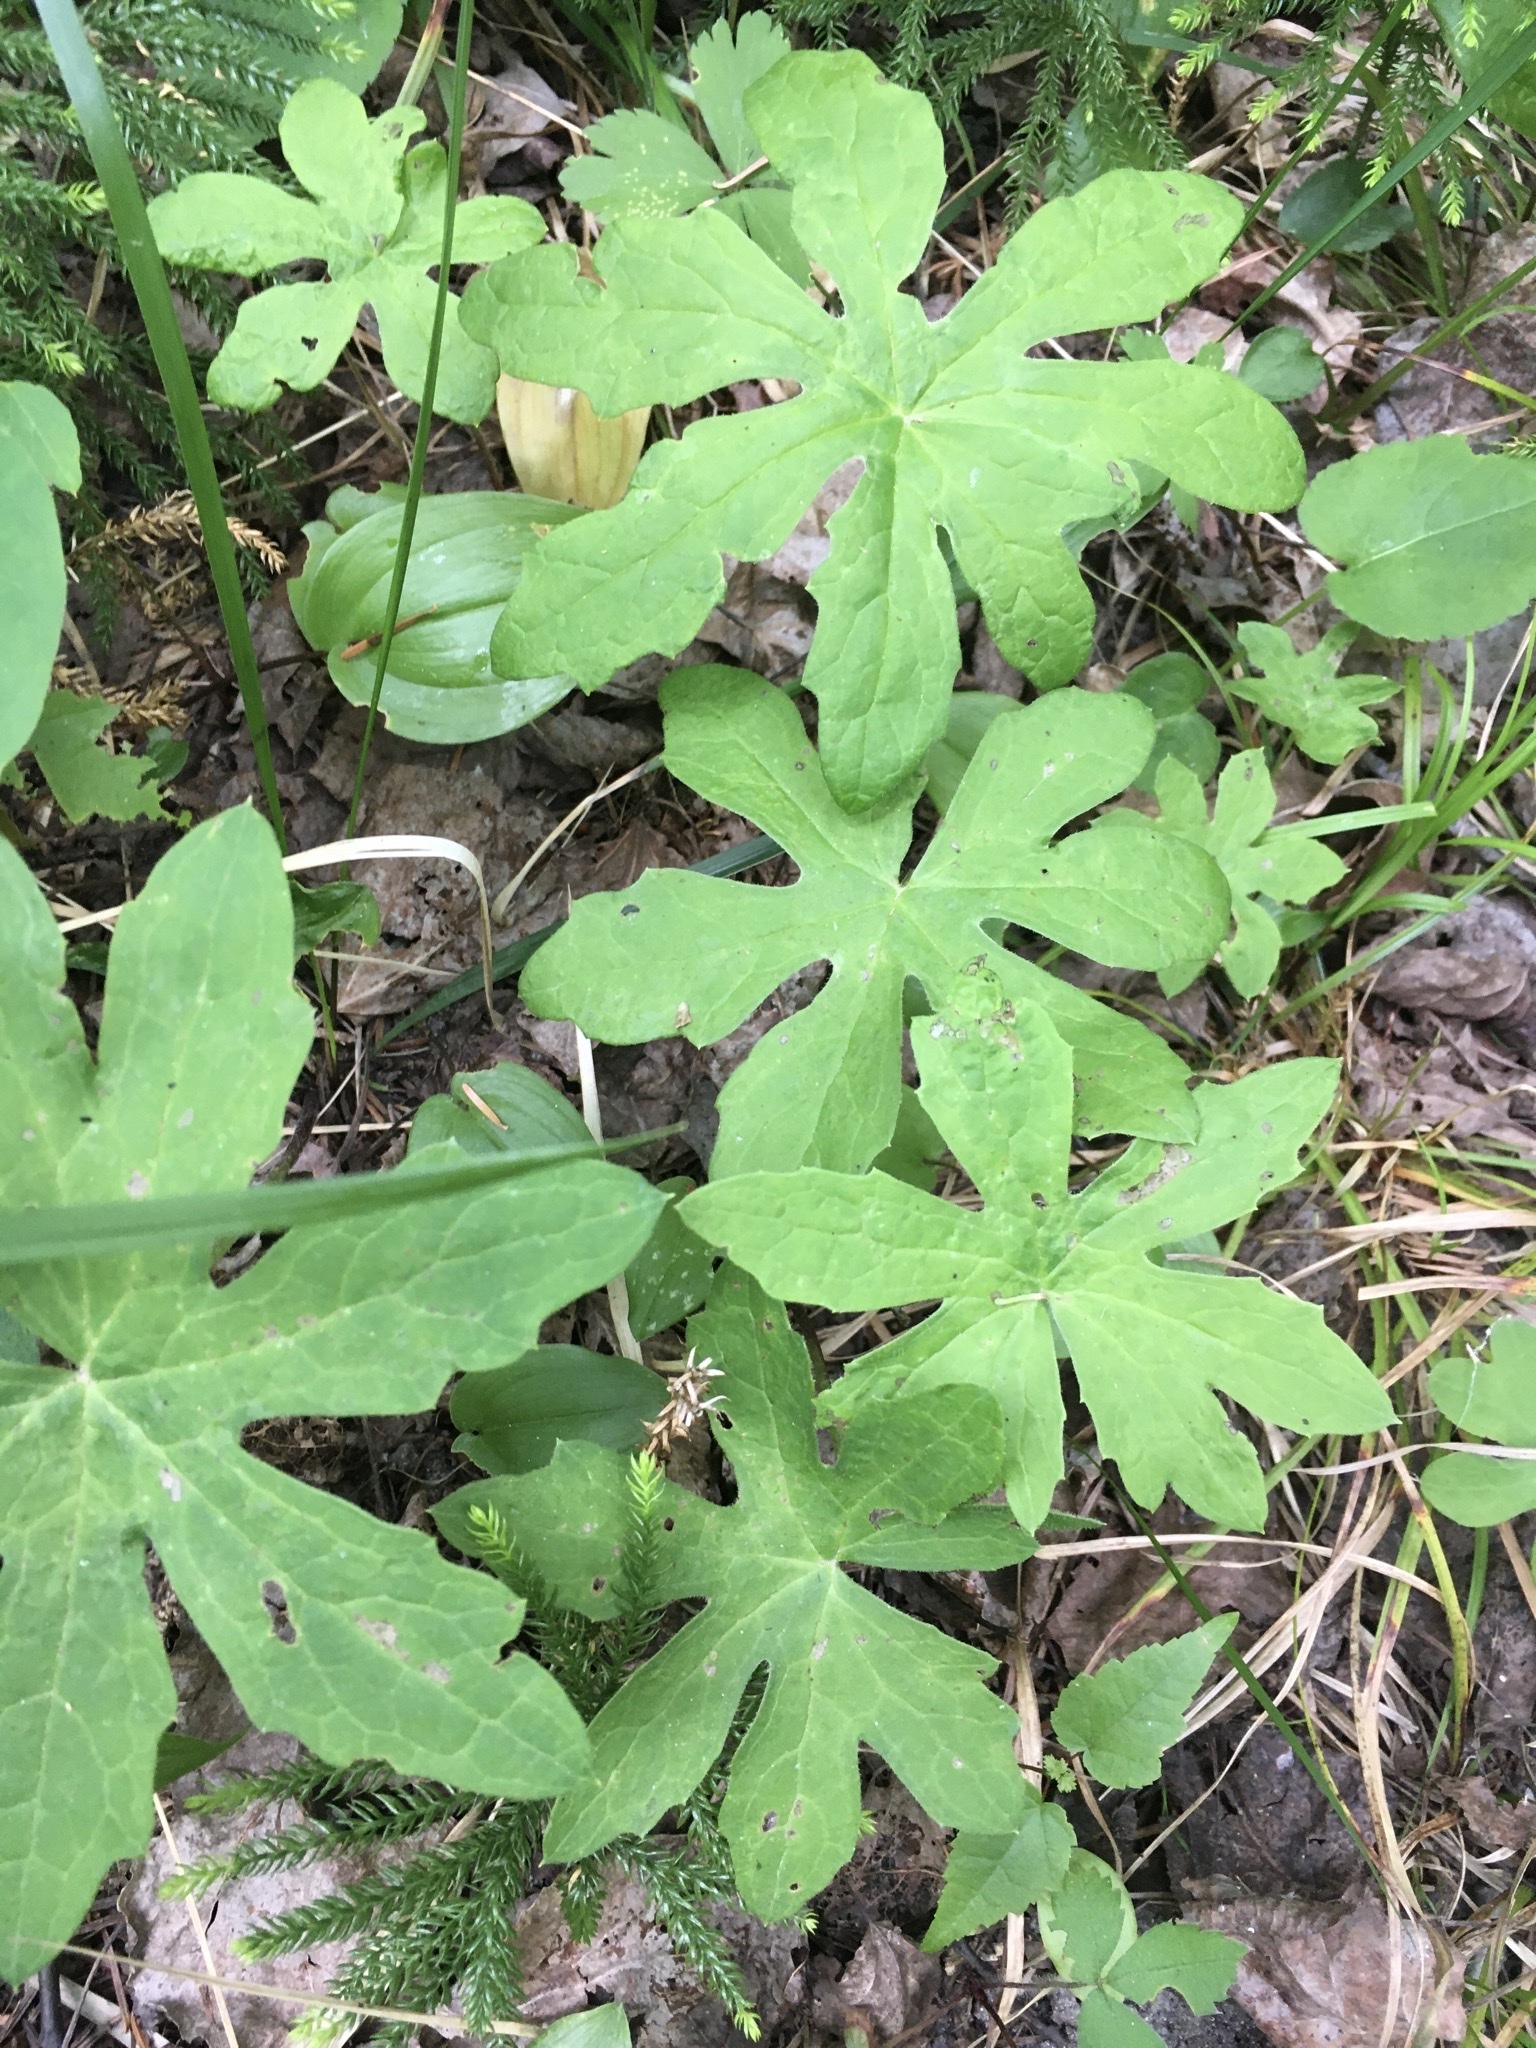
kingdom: Plantae
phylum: Tracheophyta
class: Magnoliopsida
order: Asterales
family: Asteraceae
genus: Petasites
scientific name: Petasites frigidus
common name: Arctic butterbur
